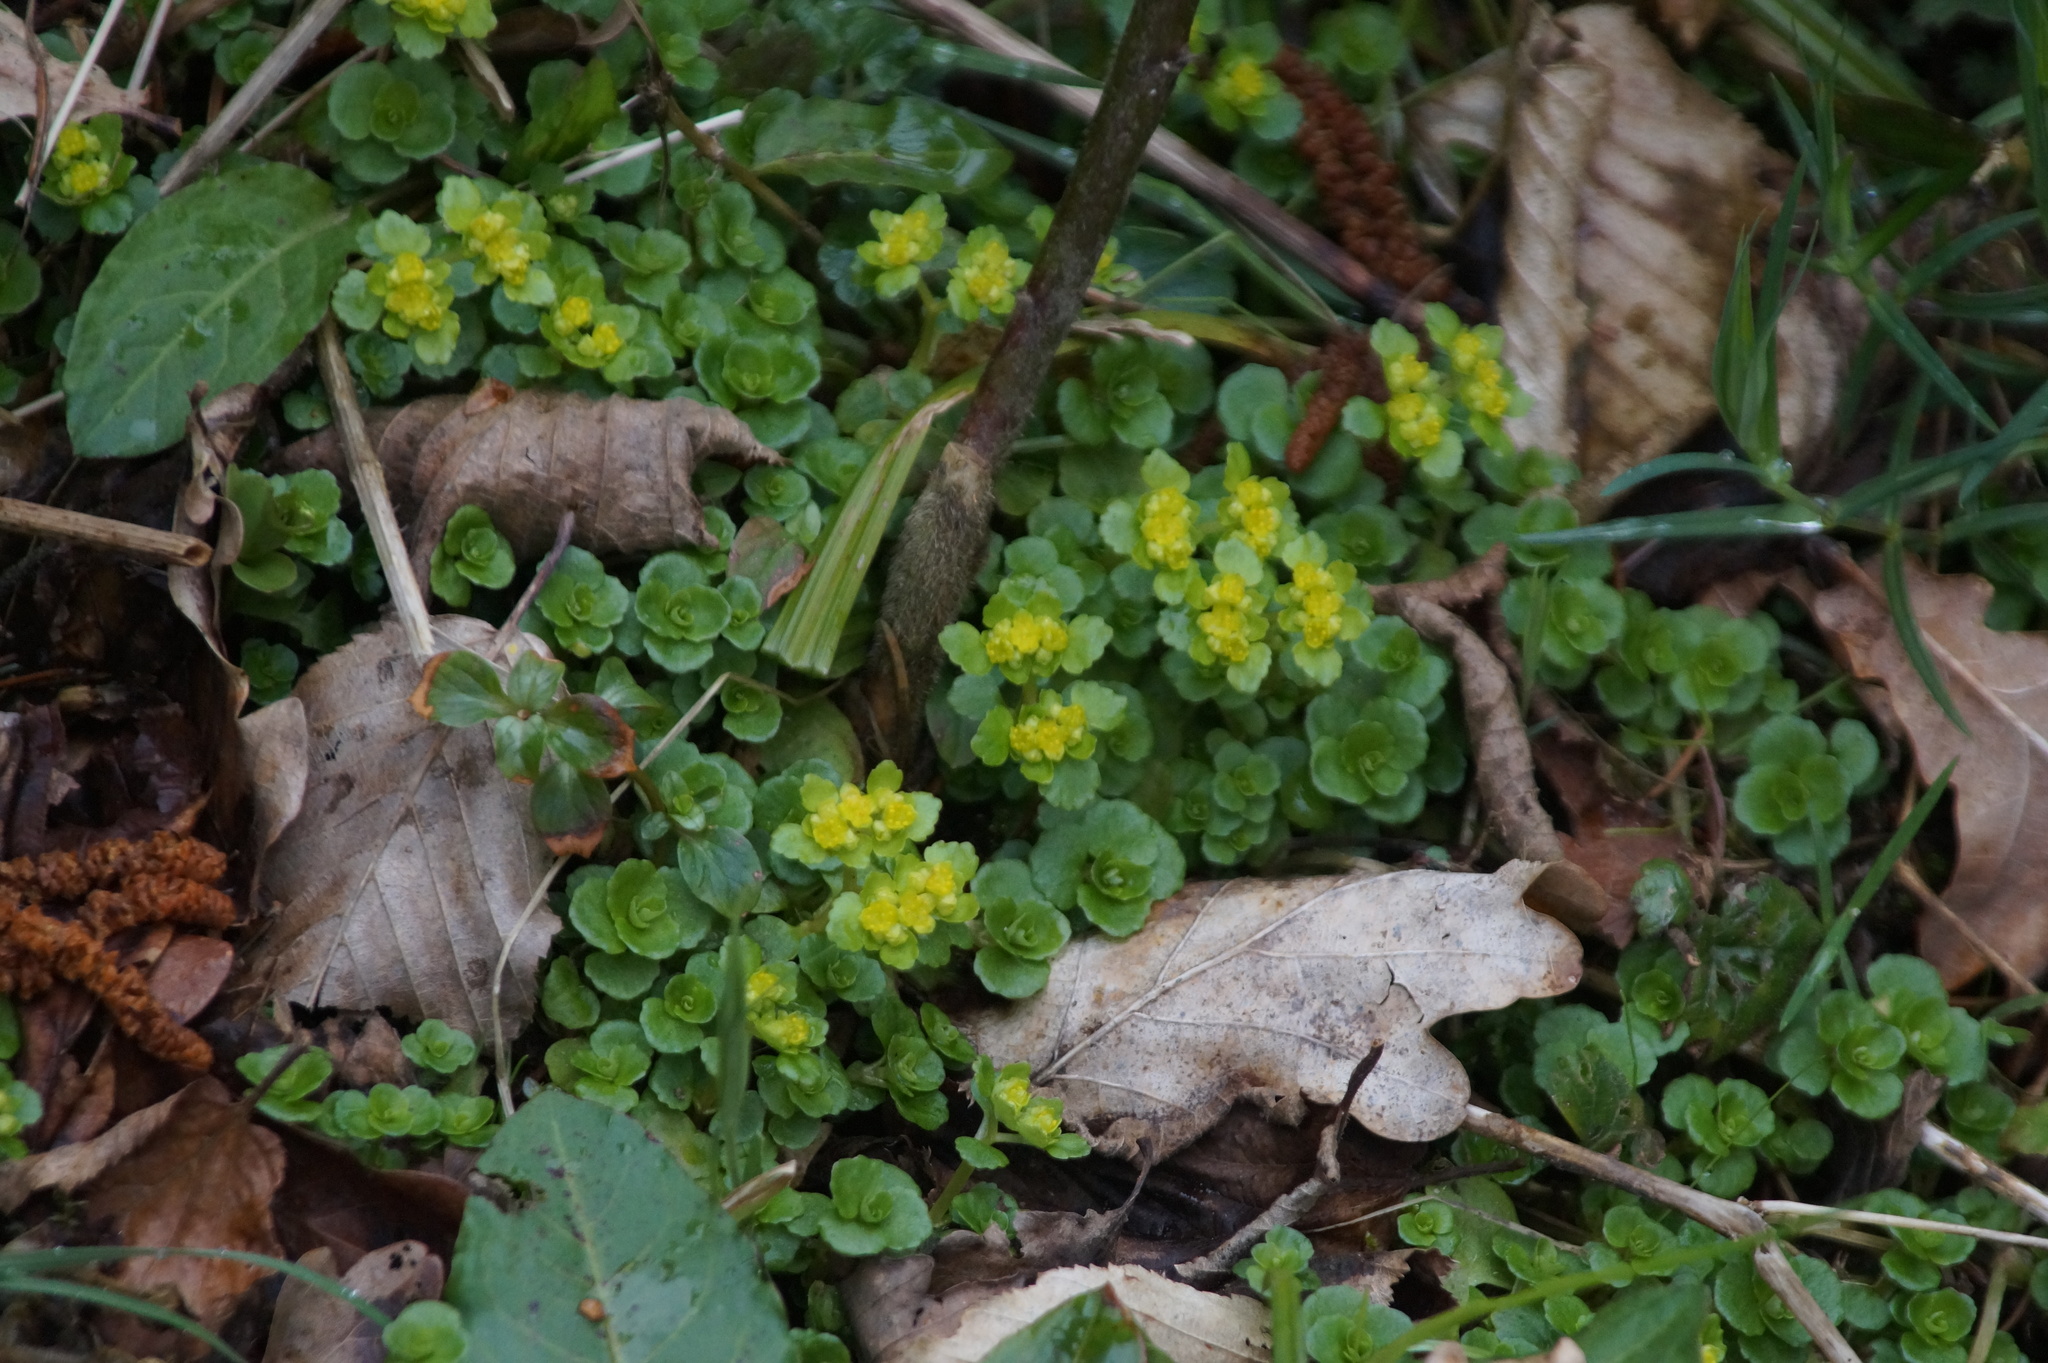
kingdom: Plantae
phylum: Tracheophyta
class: Magnoliopsida
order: Saxifragales
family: Saxifragaceae
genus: Chrysosplenium
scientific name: Chrysosplenium oppositifolium
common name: Opposite-leaved golden-saxifrage
